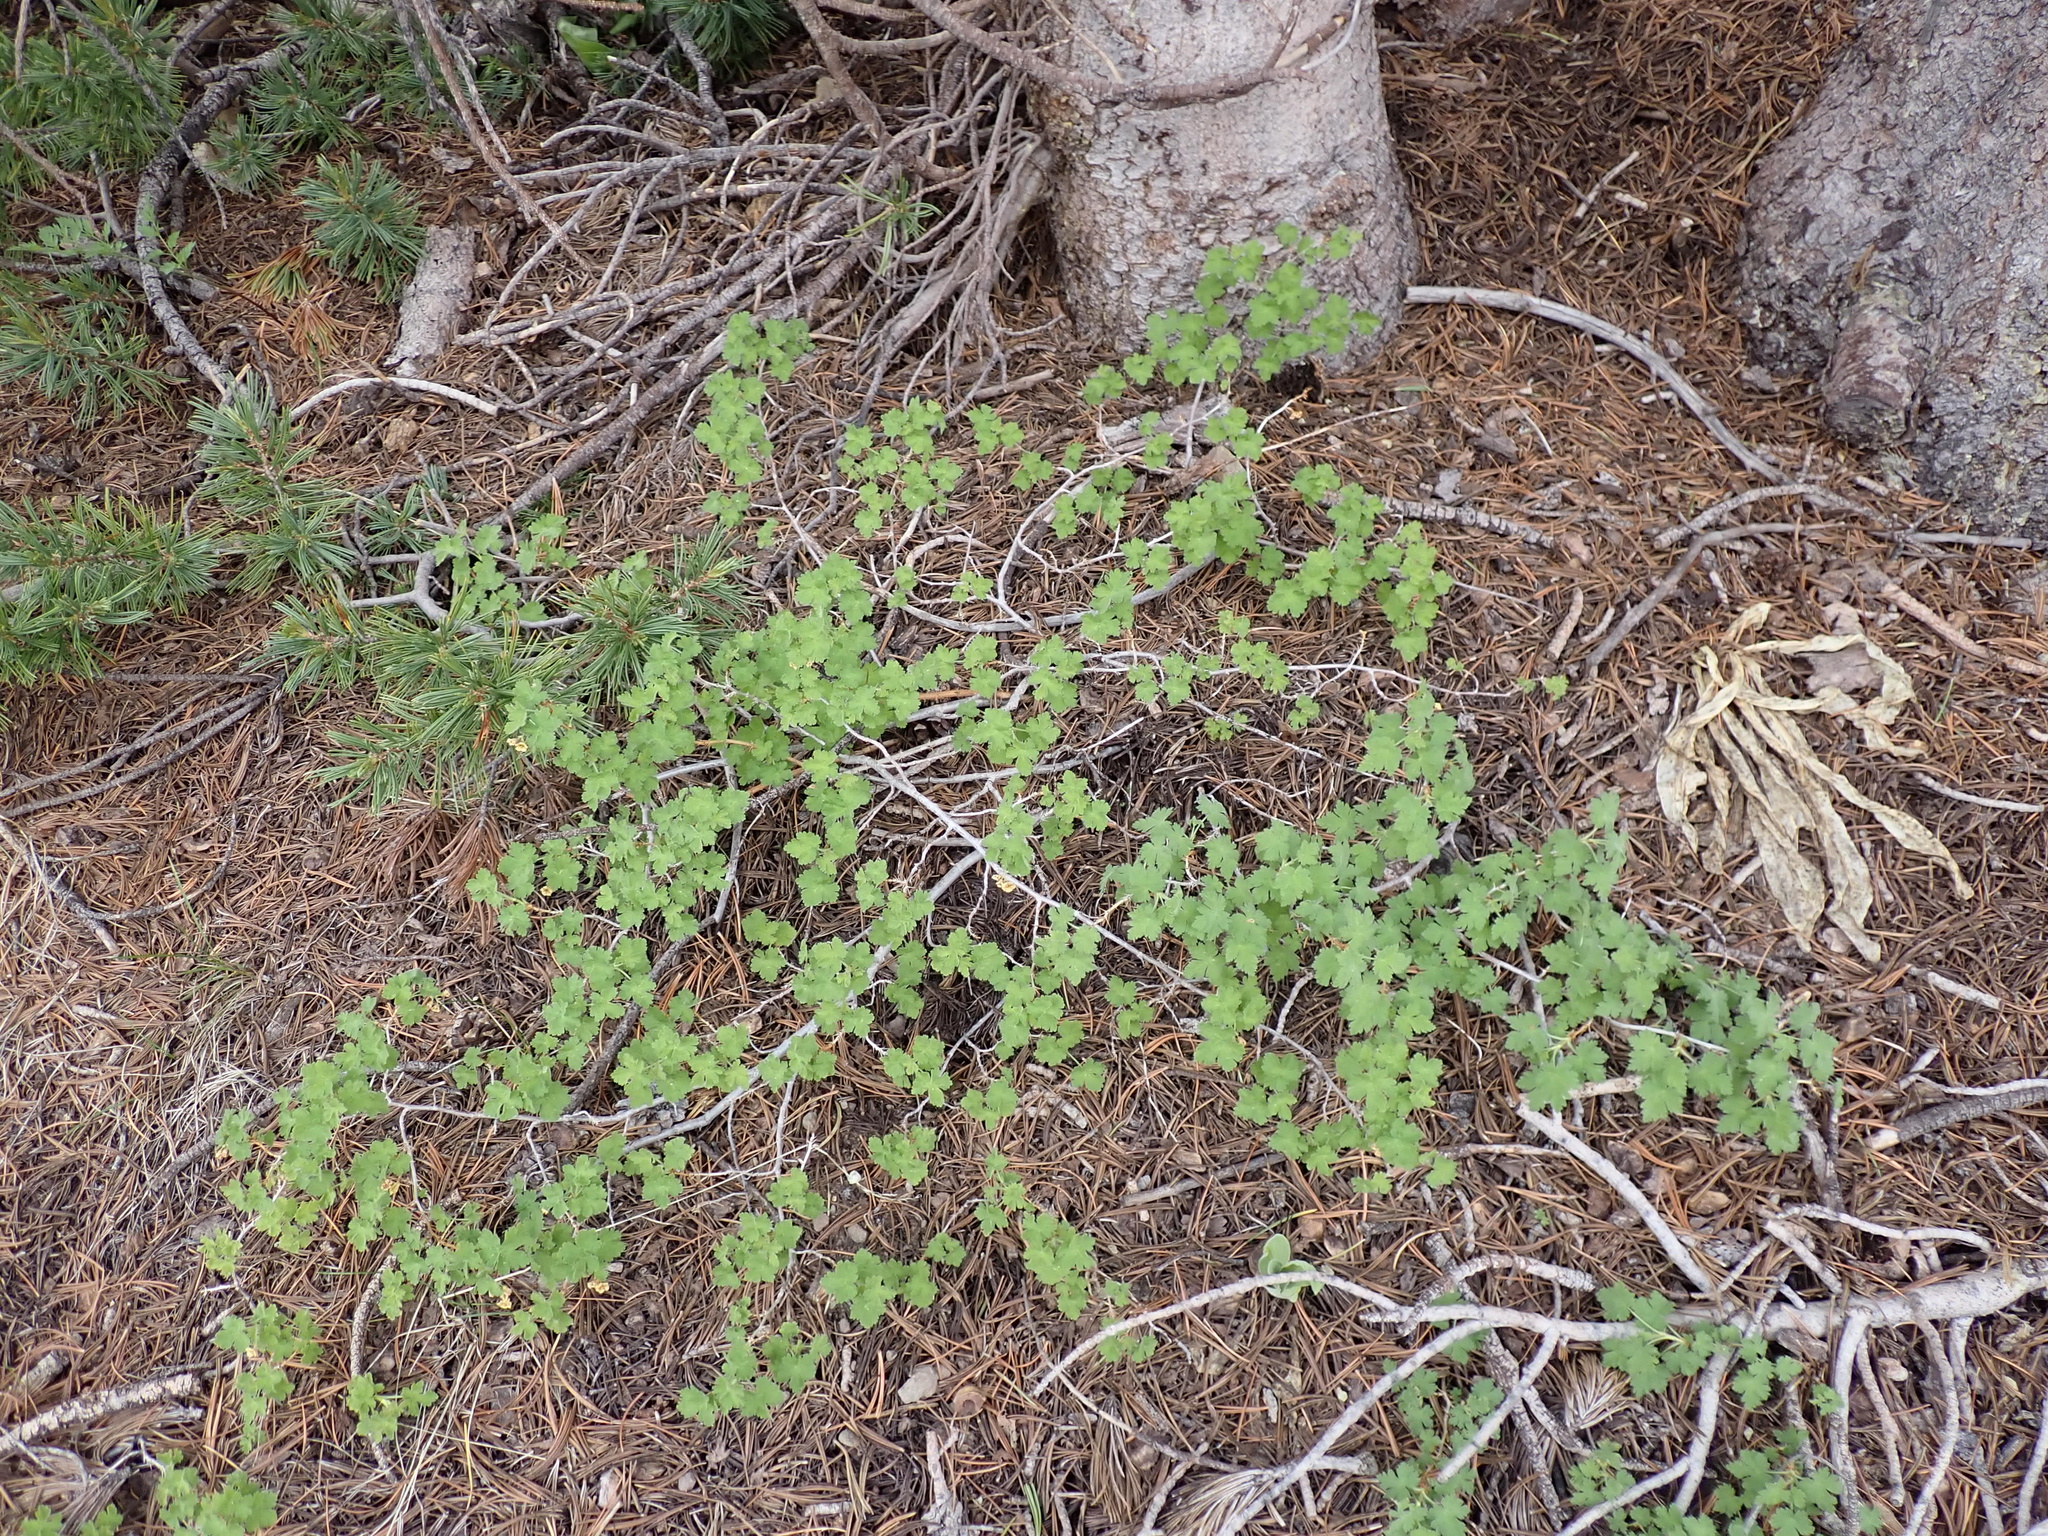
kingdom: Plantae
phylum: Tracheophyta
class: Magnoliopsida
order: Saxifragales
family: Grossulariaceae
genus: Ribes
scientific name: Ribes montigenum
